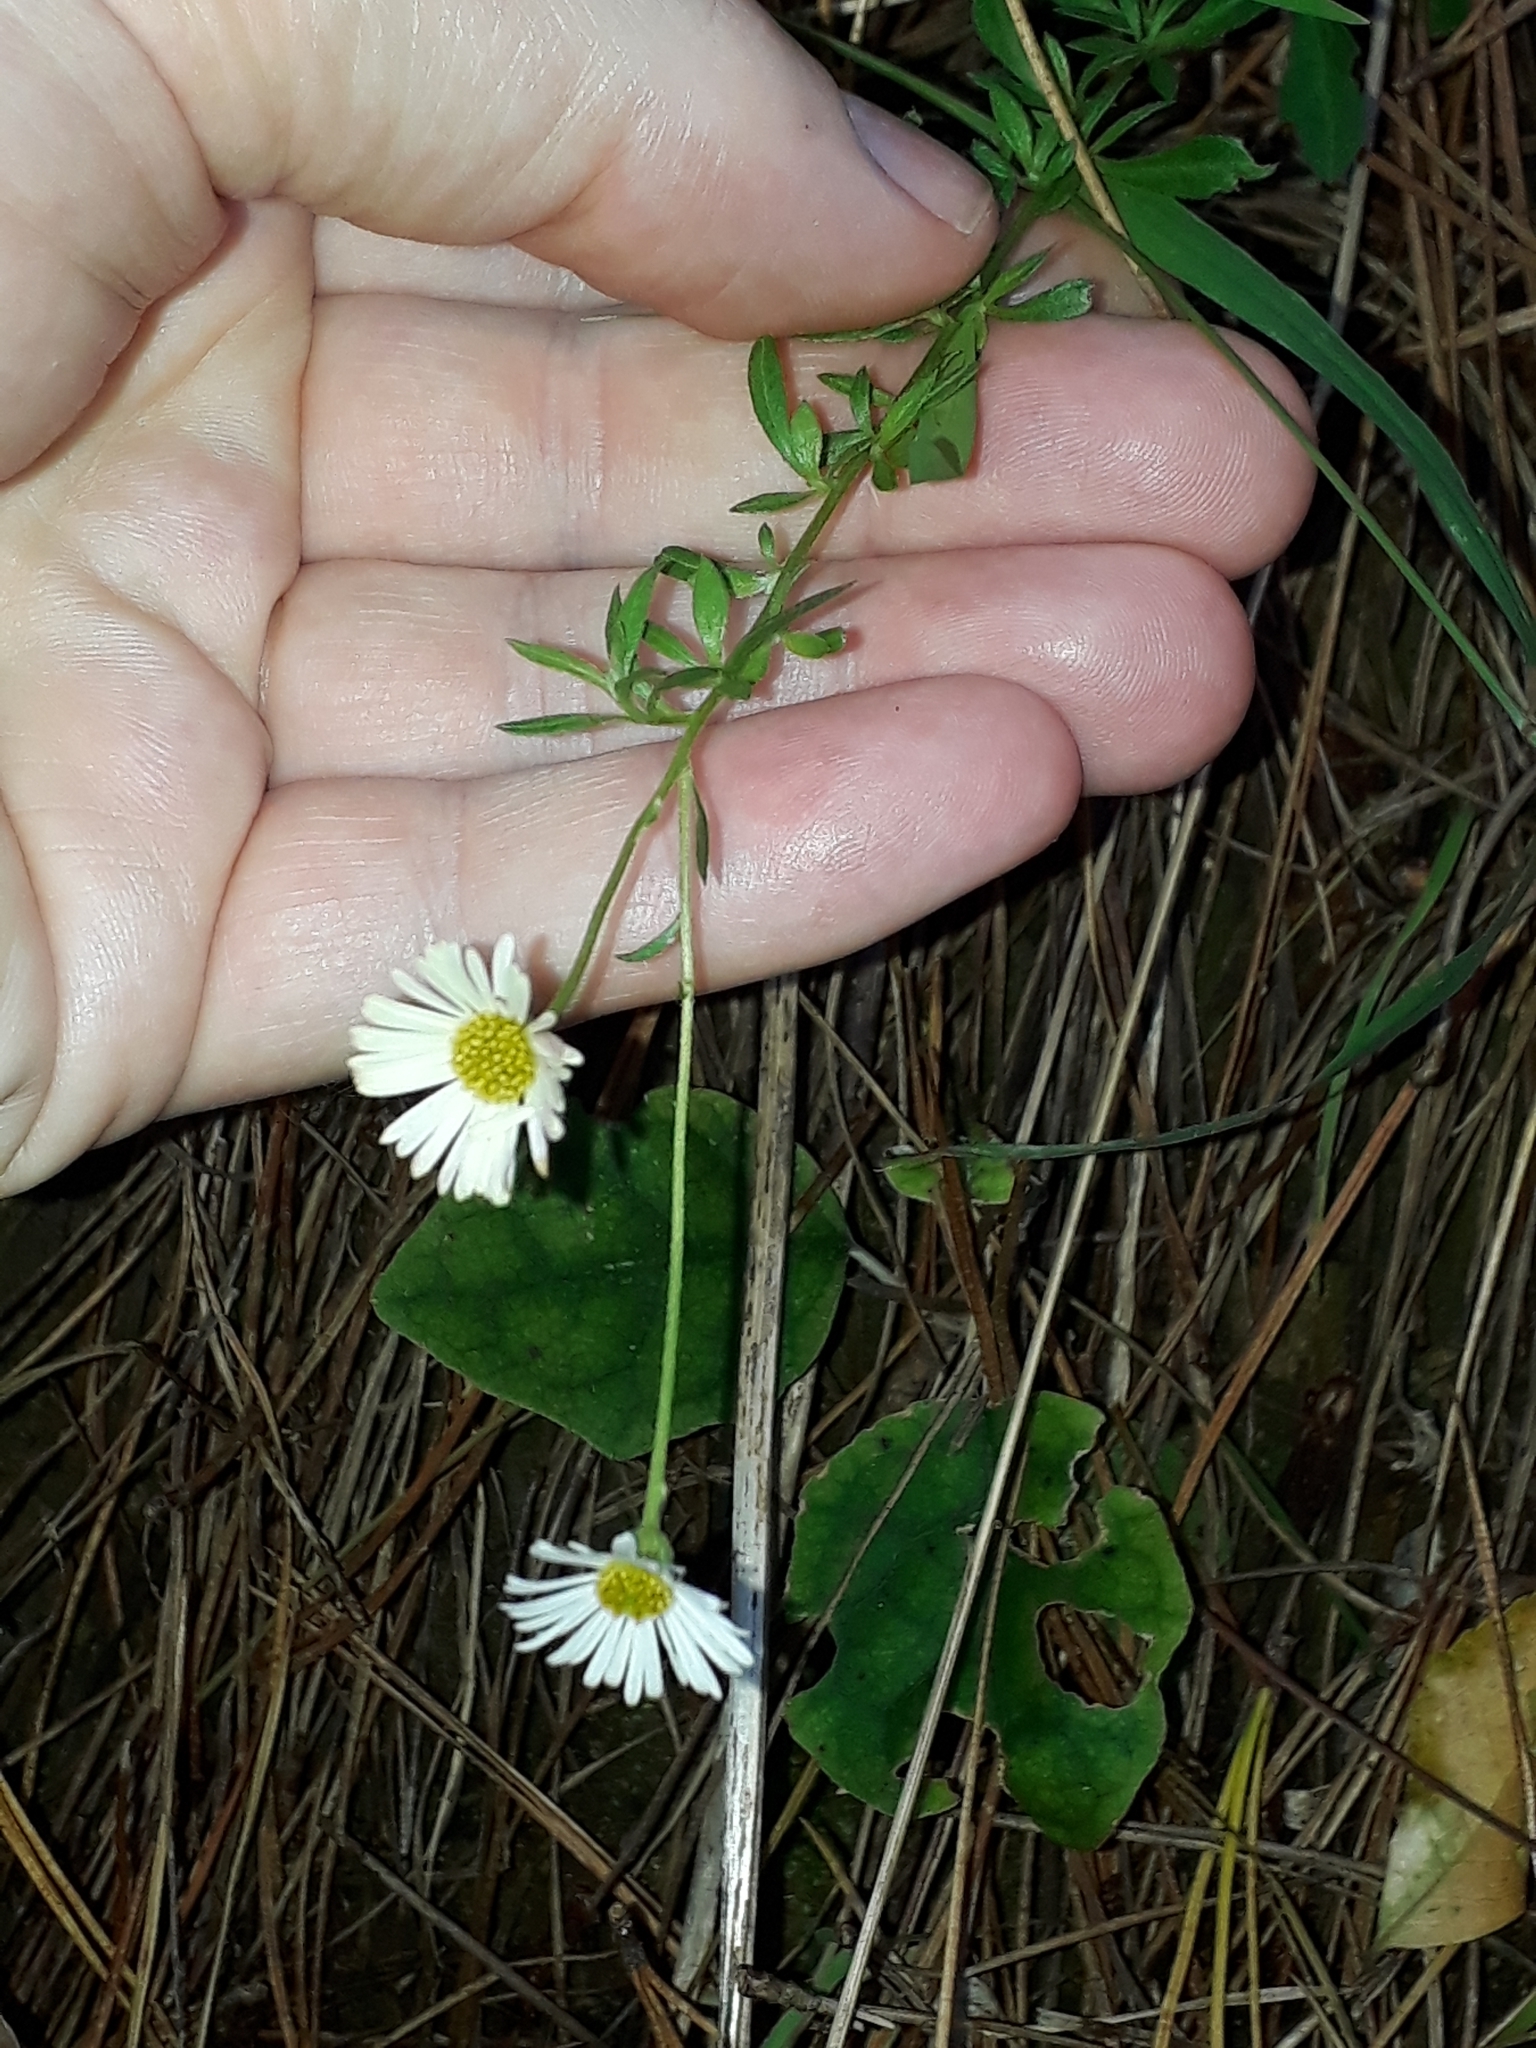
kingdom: Plantae
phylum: Tracheophyta
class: Magnoliopsida
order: Asterales
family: Asteraceae
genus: Erigeron
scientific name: Erigeron karvinskianus
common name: Mexican fleabane
